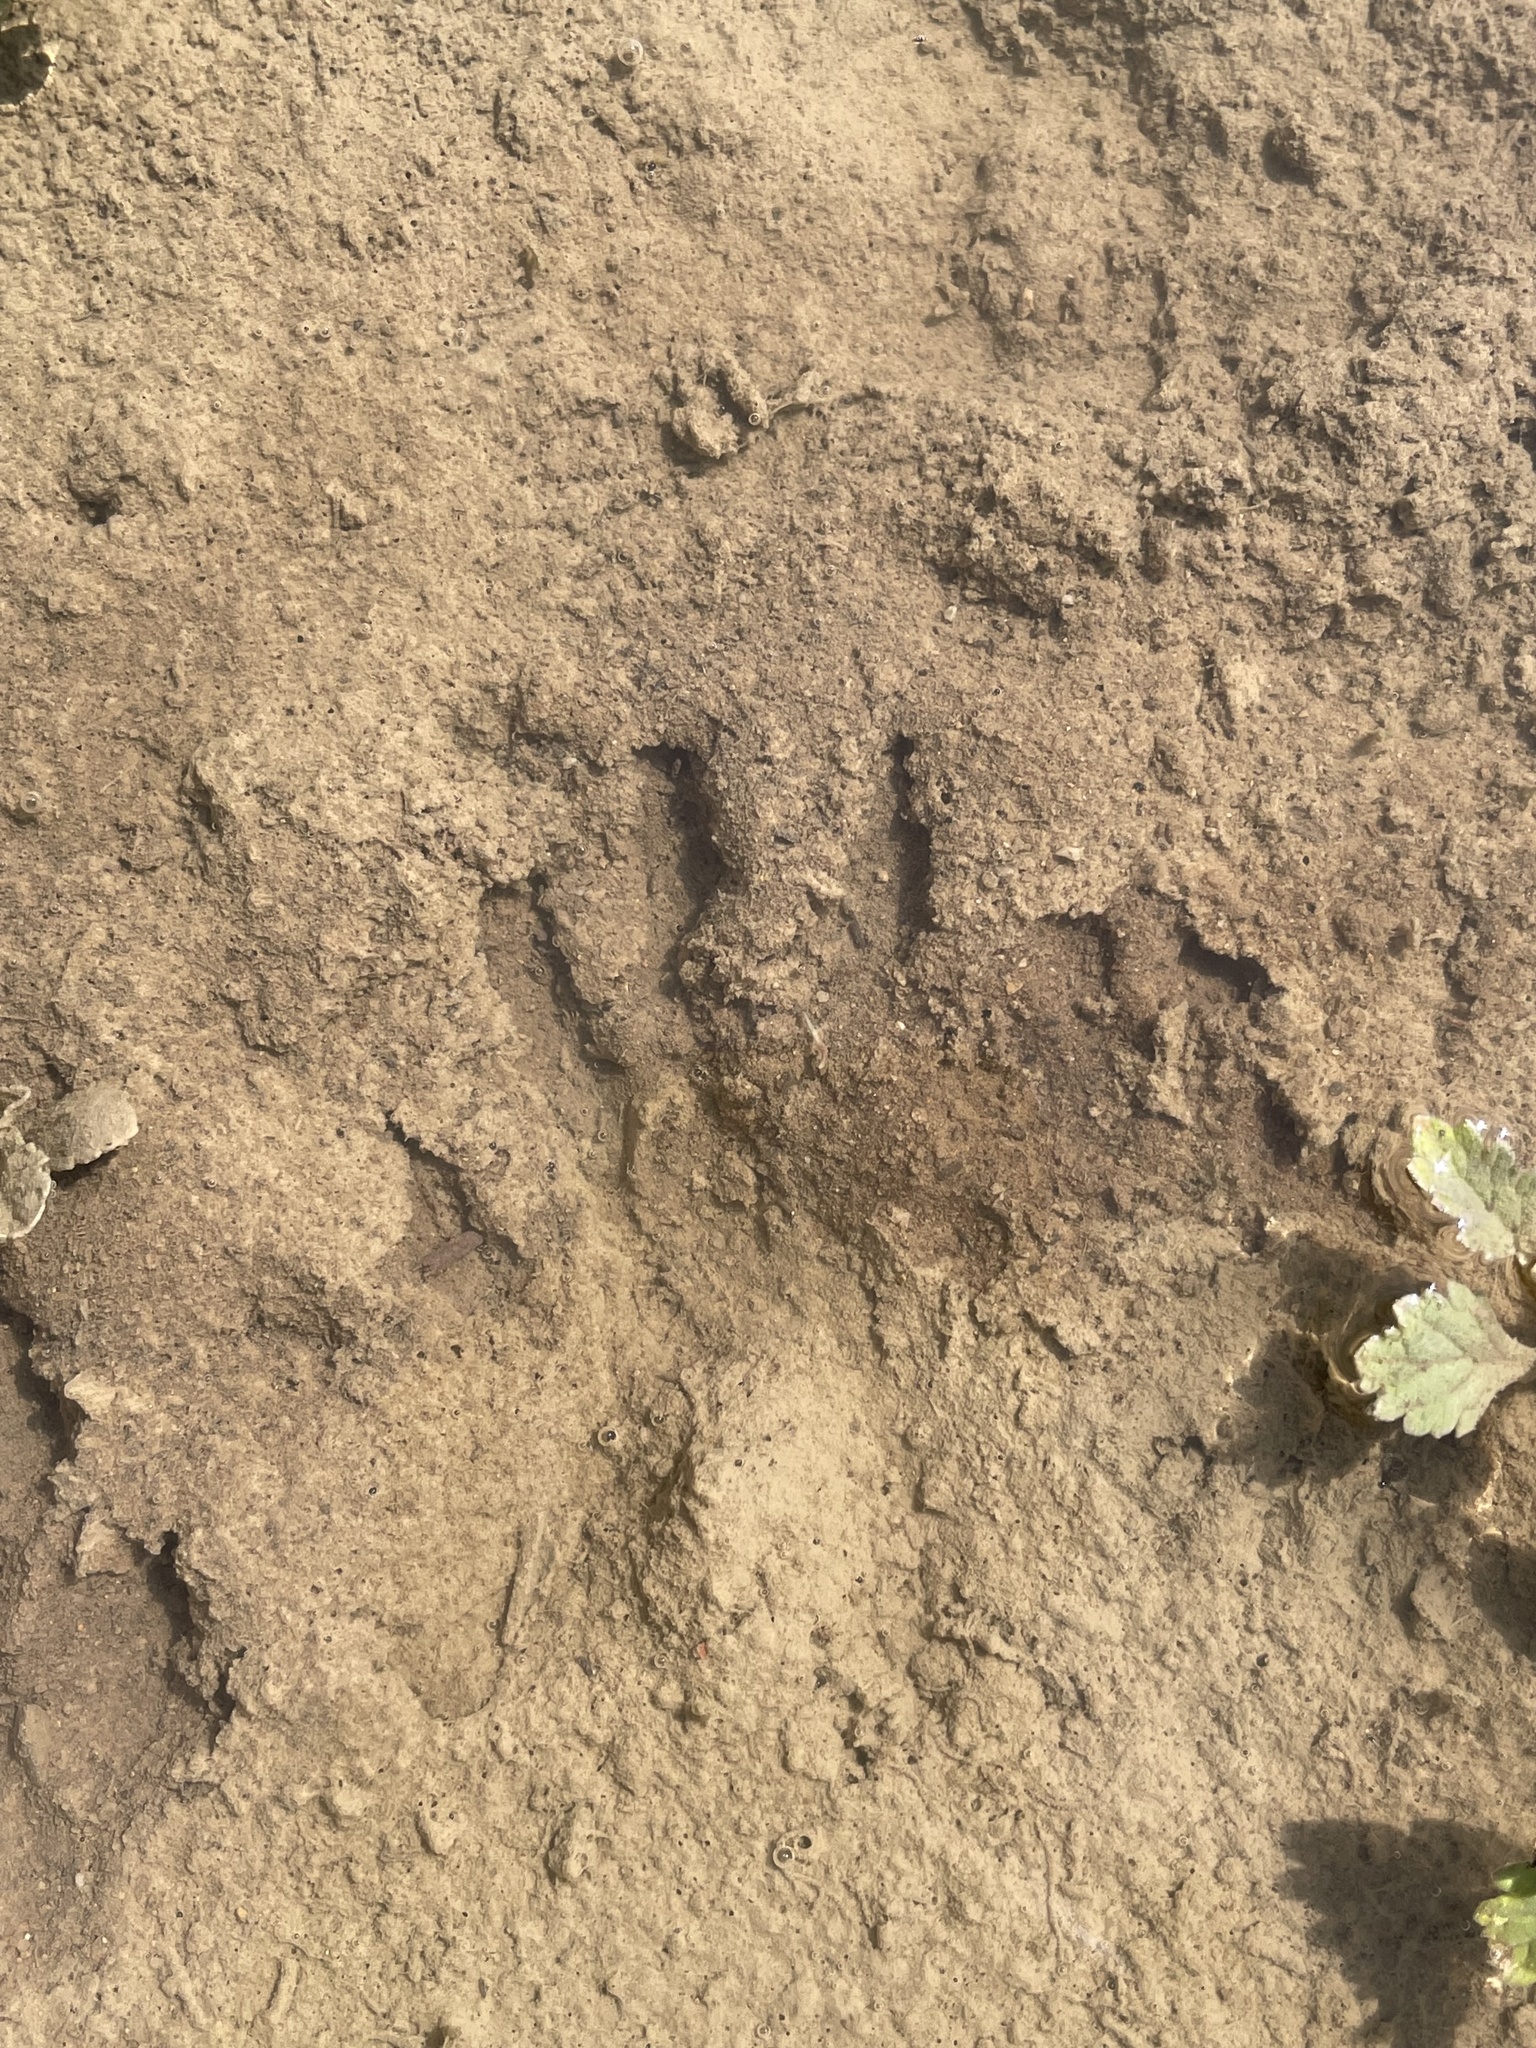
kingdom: Animalia
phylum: Chordata
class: Mammalia
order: Carnivora
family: Procyonidae
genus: Procyon
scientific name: Procyon lotor
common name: Raccoon
